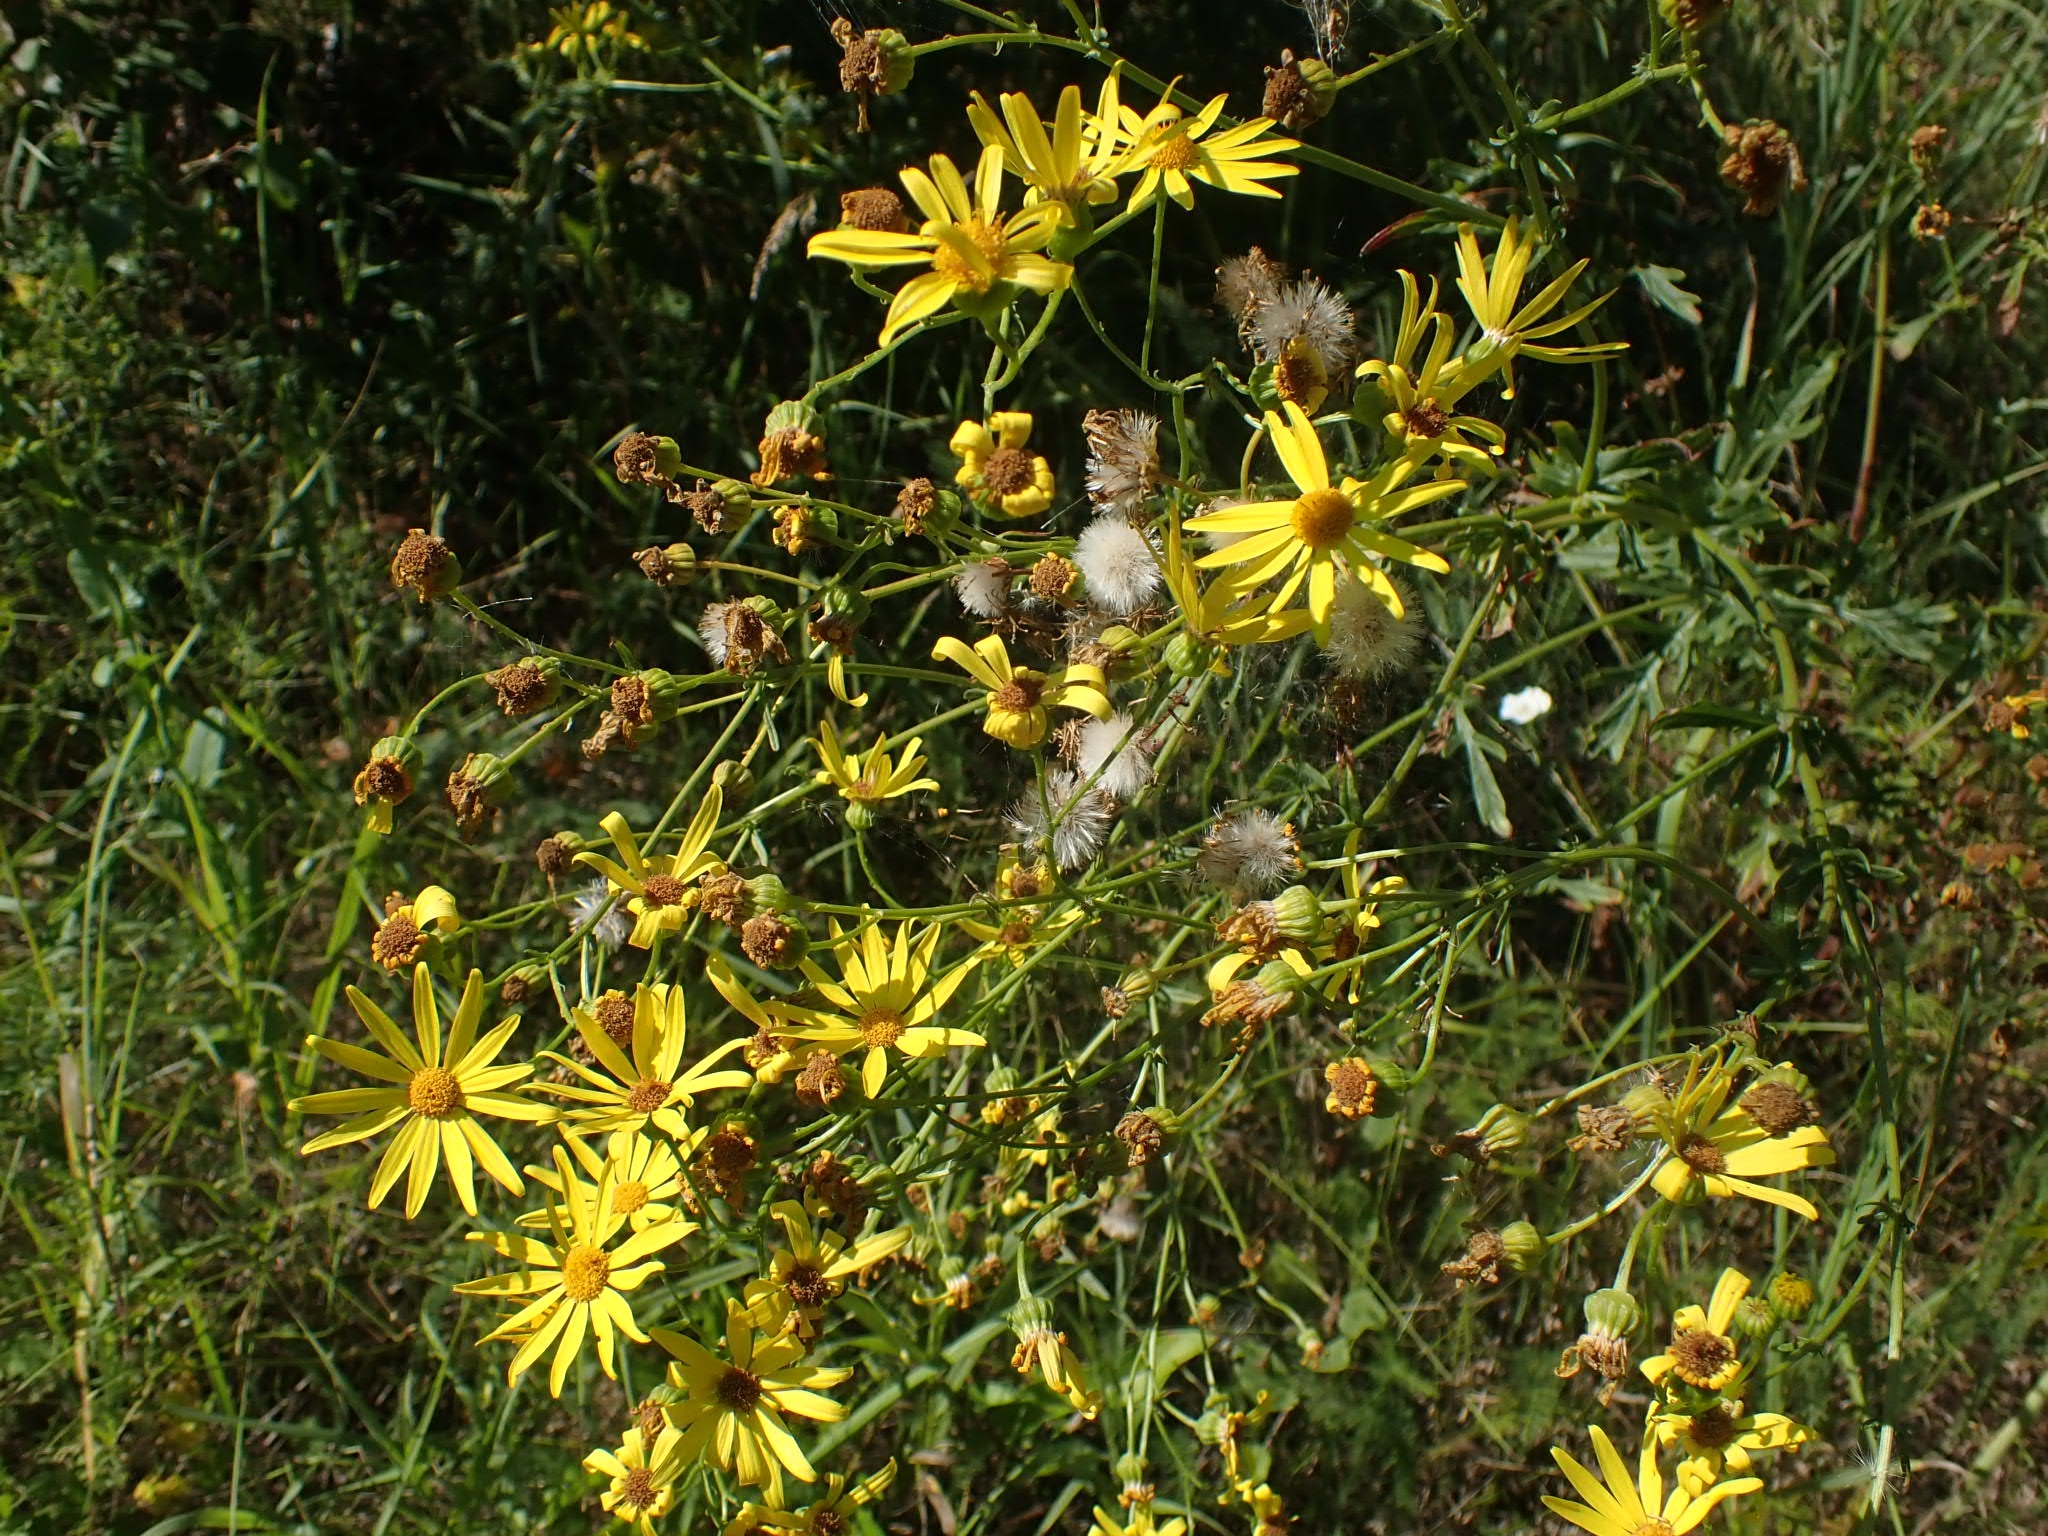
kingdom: Plantae
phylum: Tracheophyta
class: Magnoliopsida
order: Asterales
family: Asteraceae
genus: Jacobaea
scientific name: Jacobaea erucifolia
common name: Hoary ragwort
